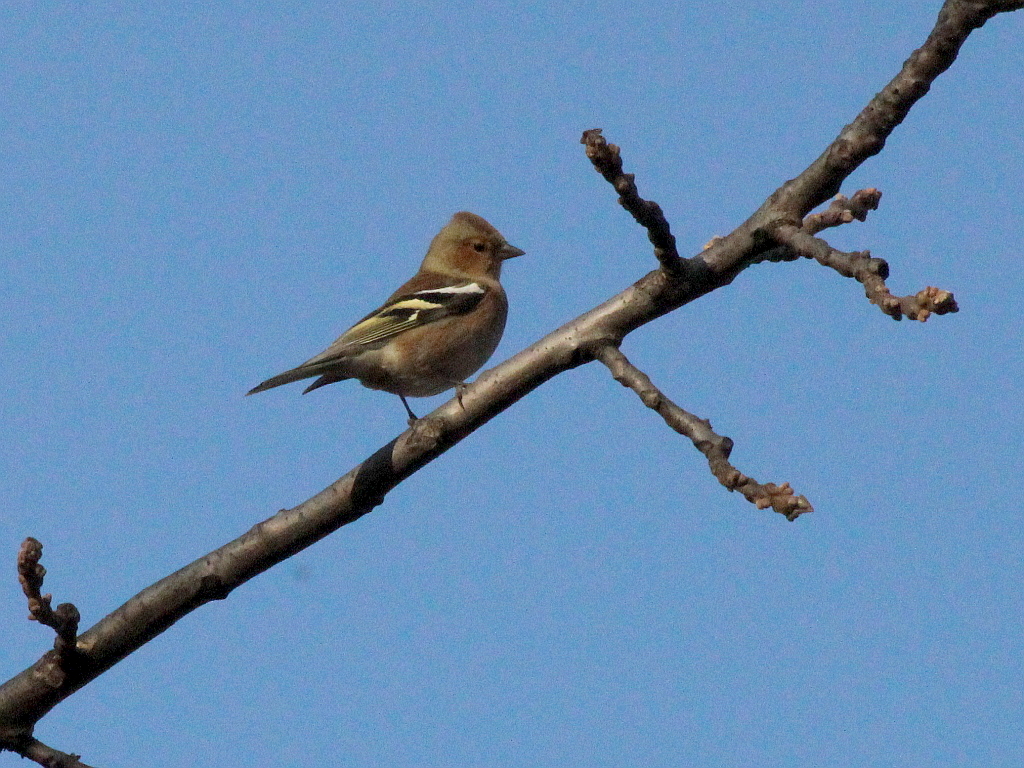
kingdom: Animalia
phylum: Chordata
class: Aves
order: Passeriformes
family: Fringillidae
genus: Fringilla
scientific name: Fringilla coelebs
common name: Common chaffinch
